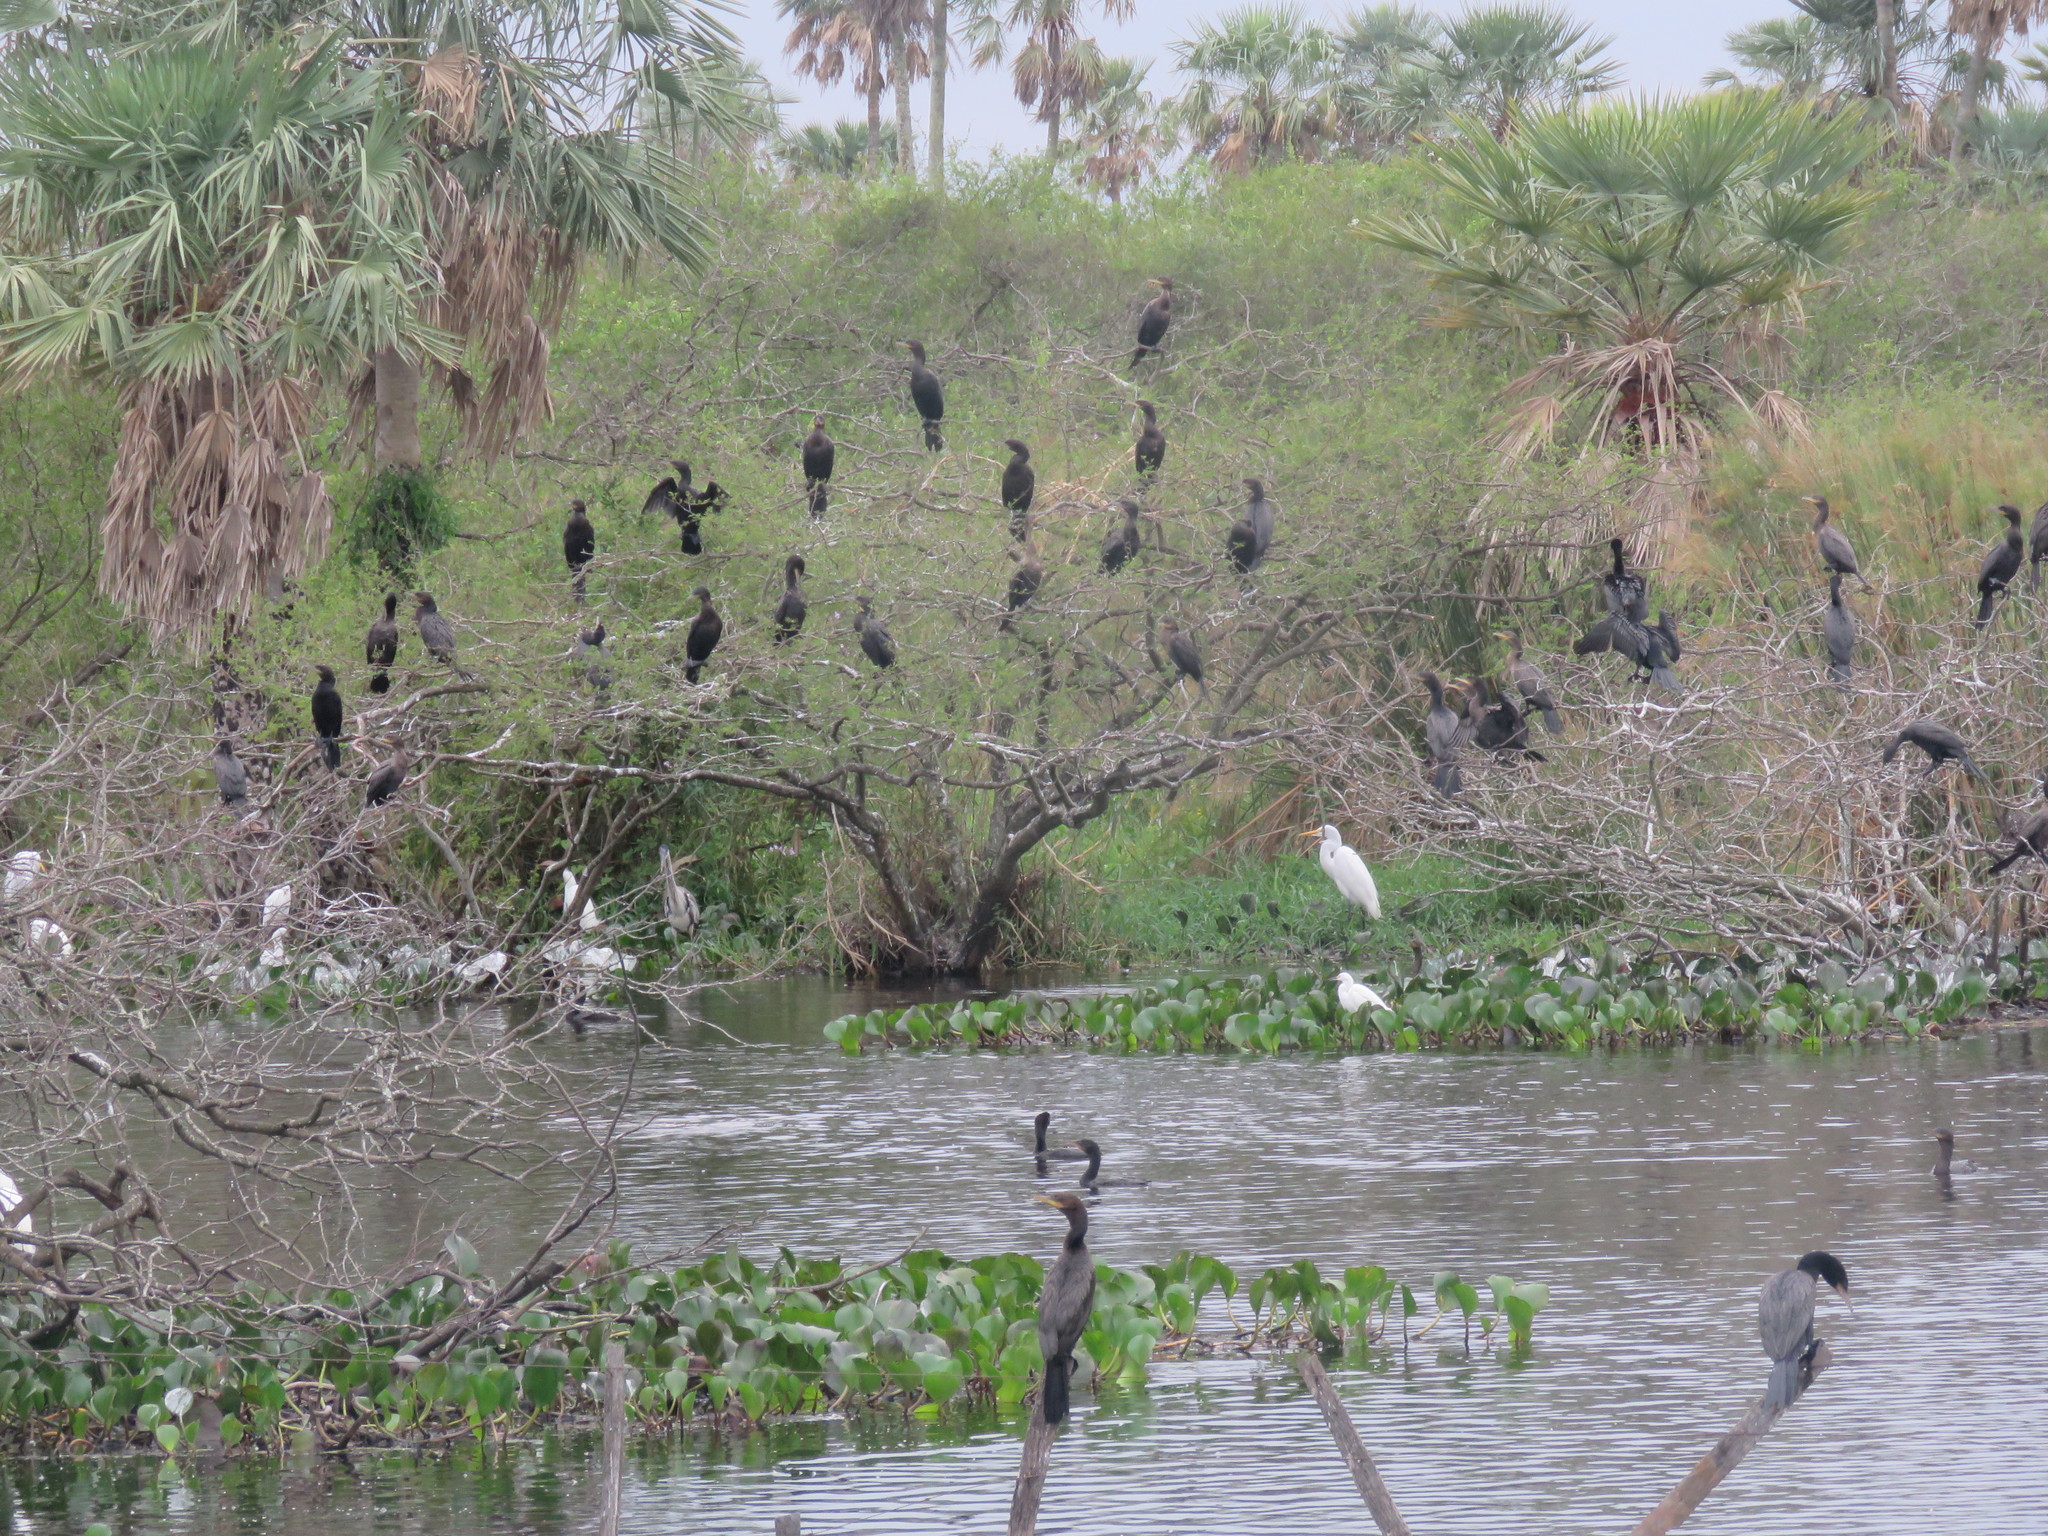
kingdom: Animalia
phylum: Chordata
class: Aves
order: Suliformes
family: Phalacrocoracidae
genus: Phalacrocorax
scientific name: Phalacrocorax brasilianus
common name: Neotropic cormorant
